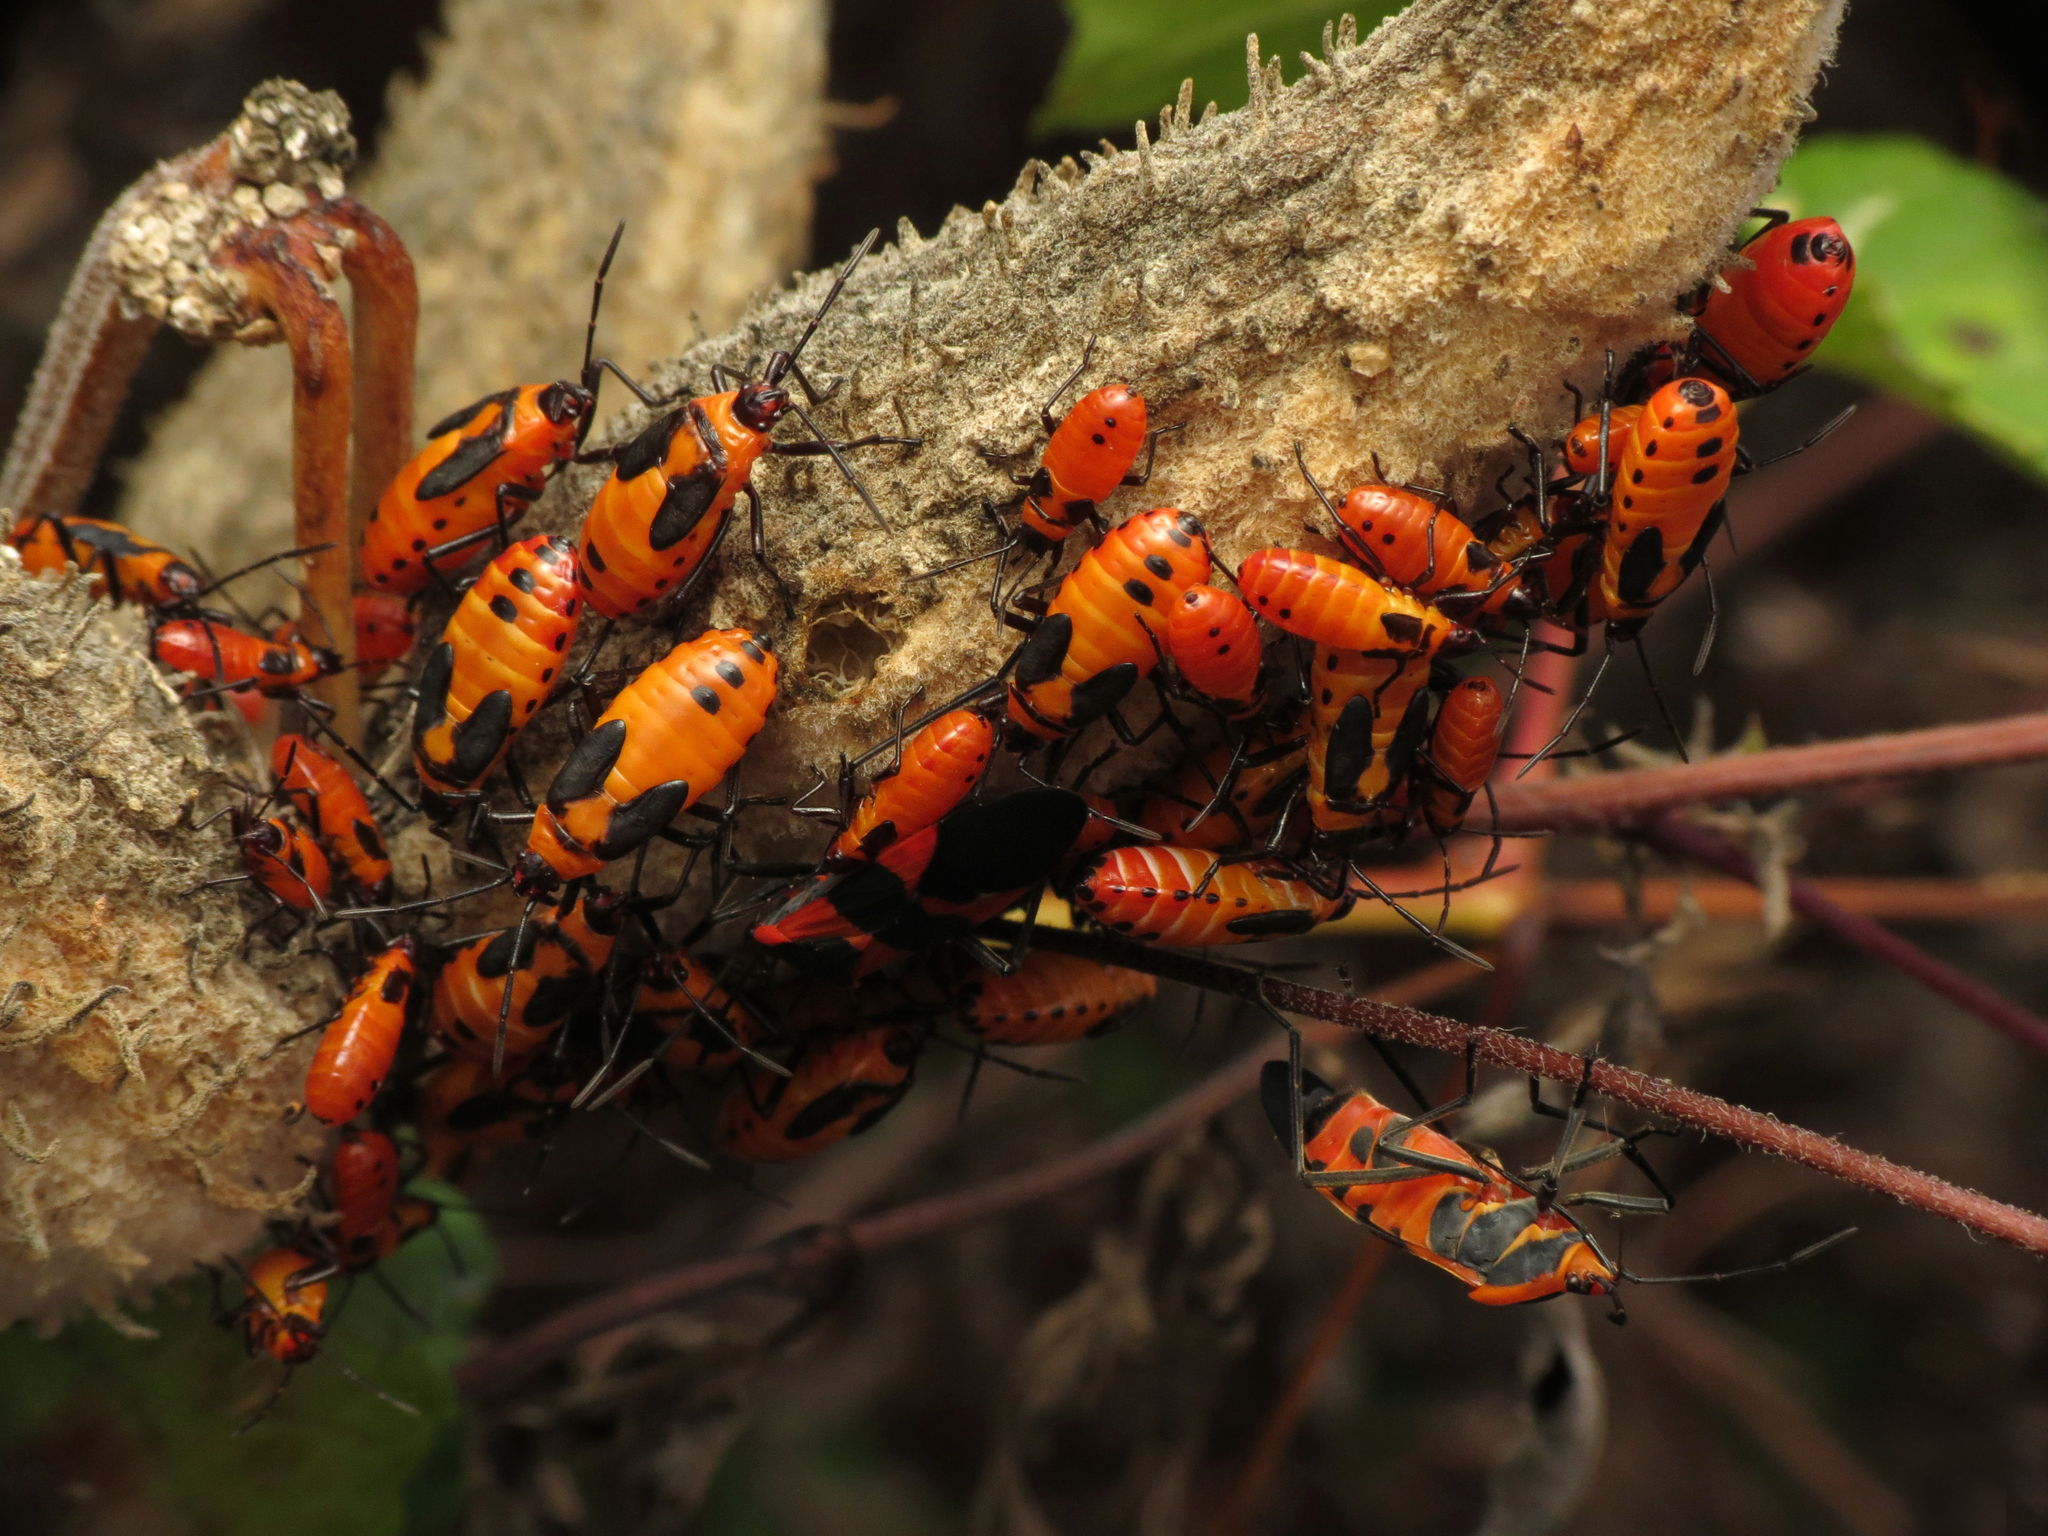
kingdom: Animalia
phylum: Arthropoda
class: Insecta
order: Hemiptera
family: Lygaeidae
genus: Oncopeltus
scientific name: Oncopeltus fasciatus
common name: Large milkweed bug
